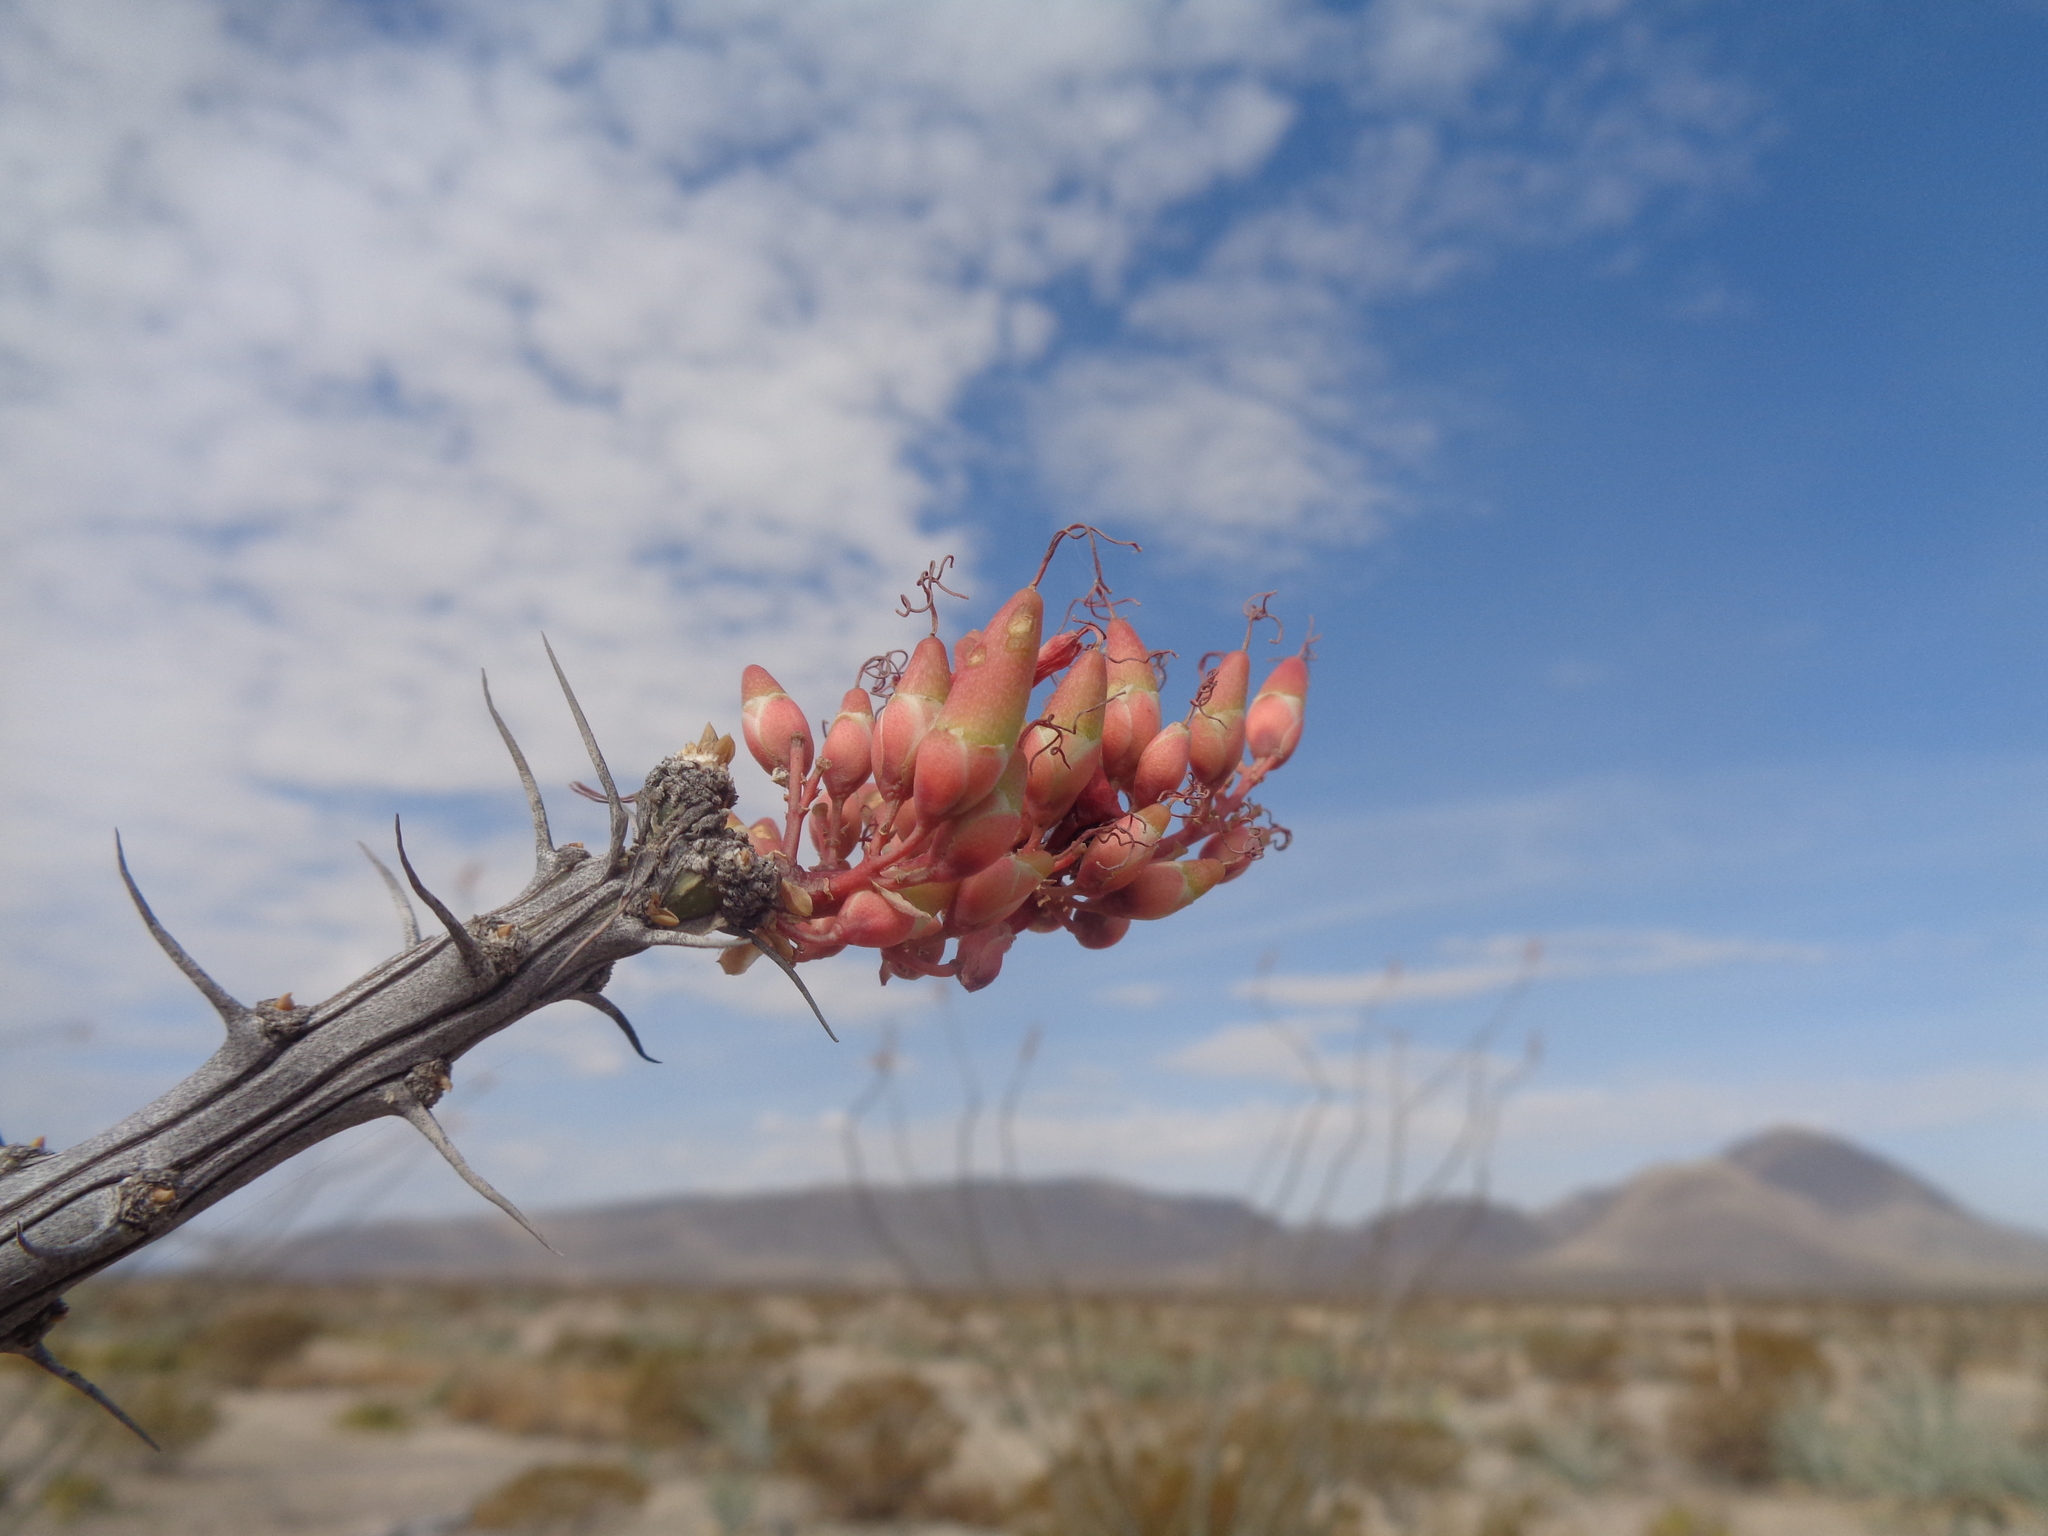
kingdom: Plantae
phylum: Tracheophyta
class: Magnoliopsida
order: Ericales
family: Fouquieriaceae
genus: Fouquieria
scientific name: Fouquieria splendens
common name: Vine-cactus
